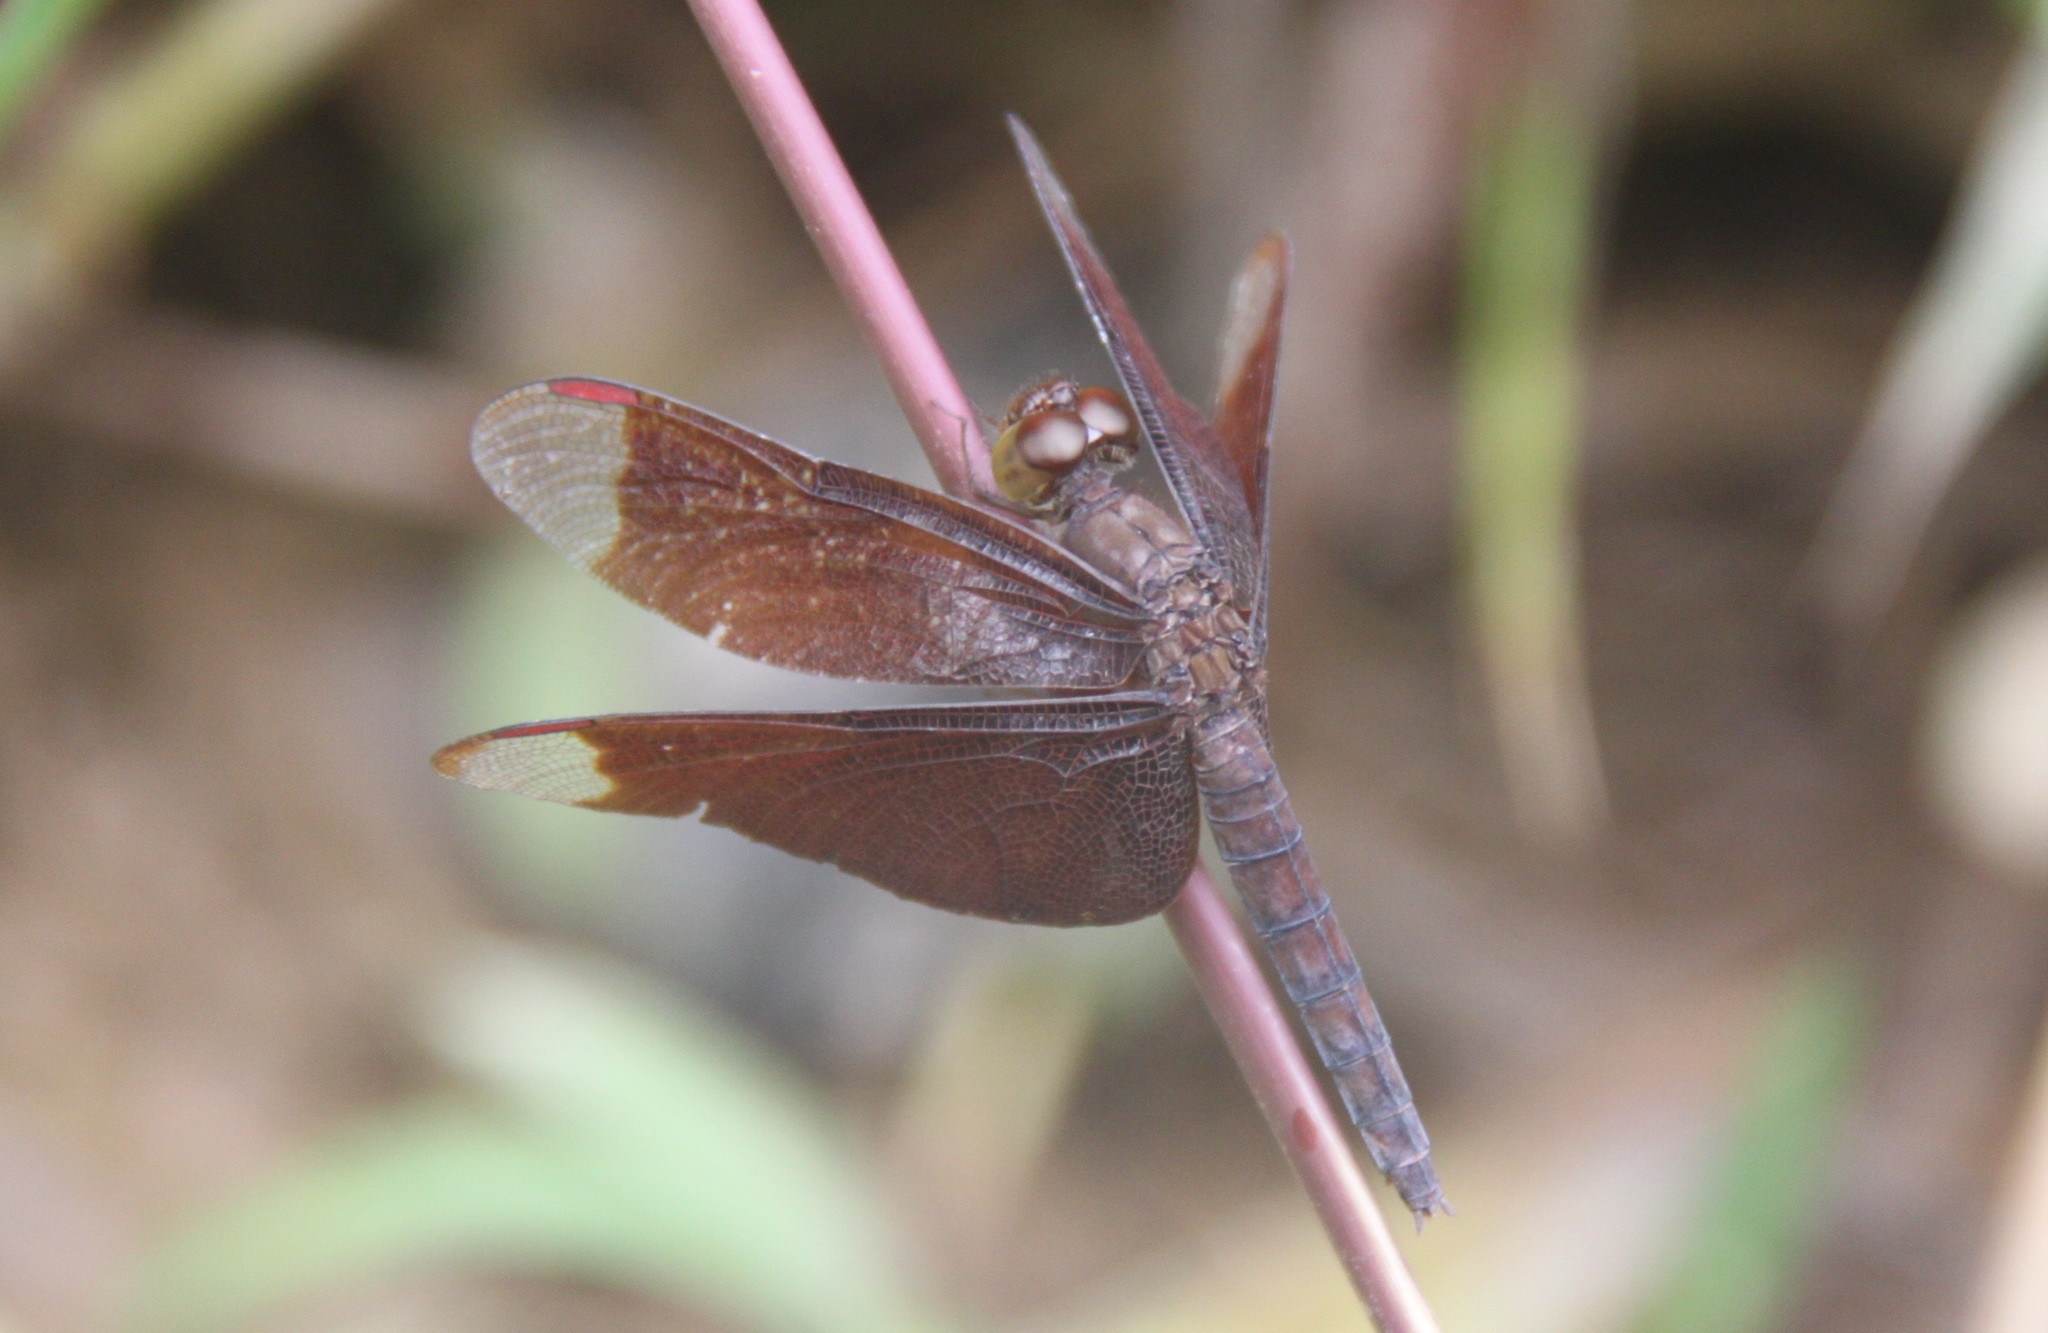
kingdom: Animalia
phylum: Arthropoda
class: Insecta
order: Odonata
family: Libellulidae
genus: Neurothemis
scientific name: Neurothemis fulvia
